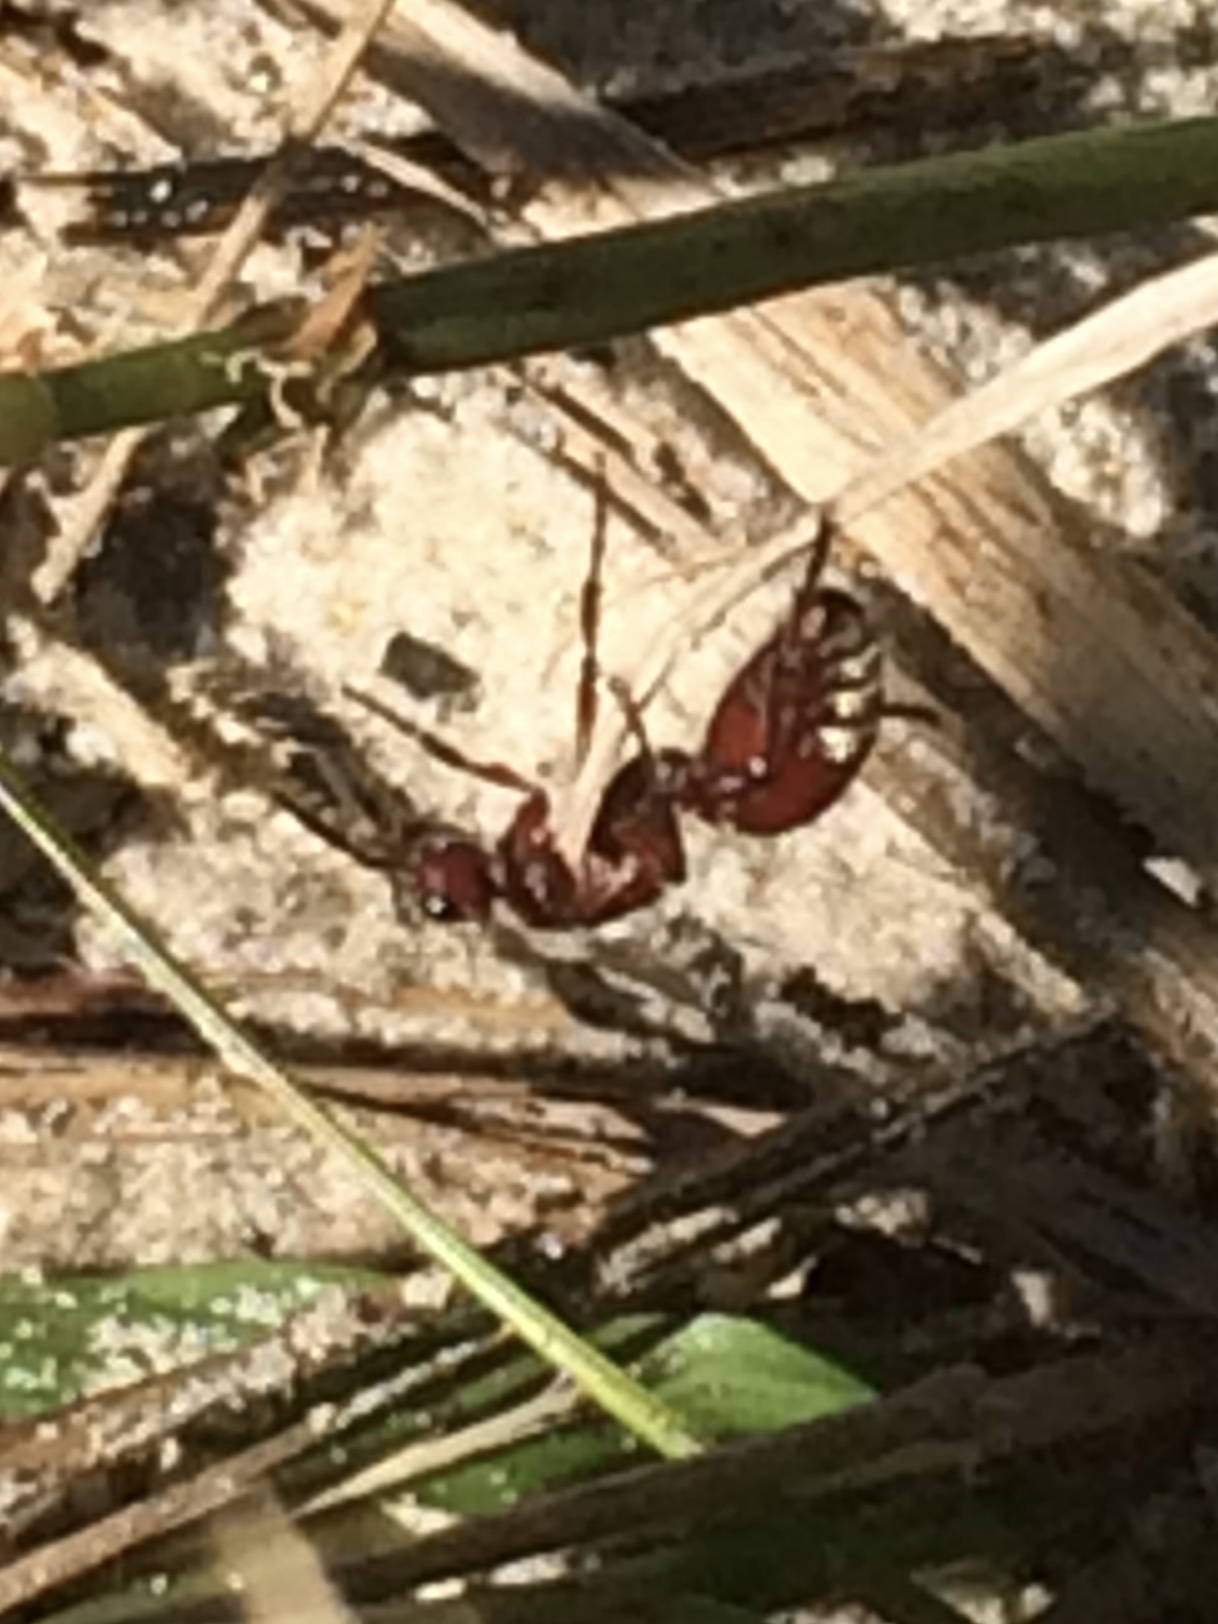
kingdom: Animalia
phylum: Arthropoda
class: Insecta
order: Hymenoptera
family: Mutillidae
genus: Dasymutilla
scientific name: Dasymutilla
